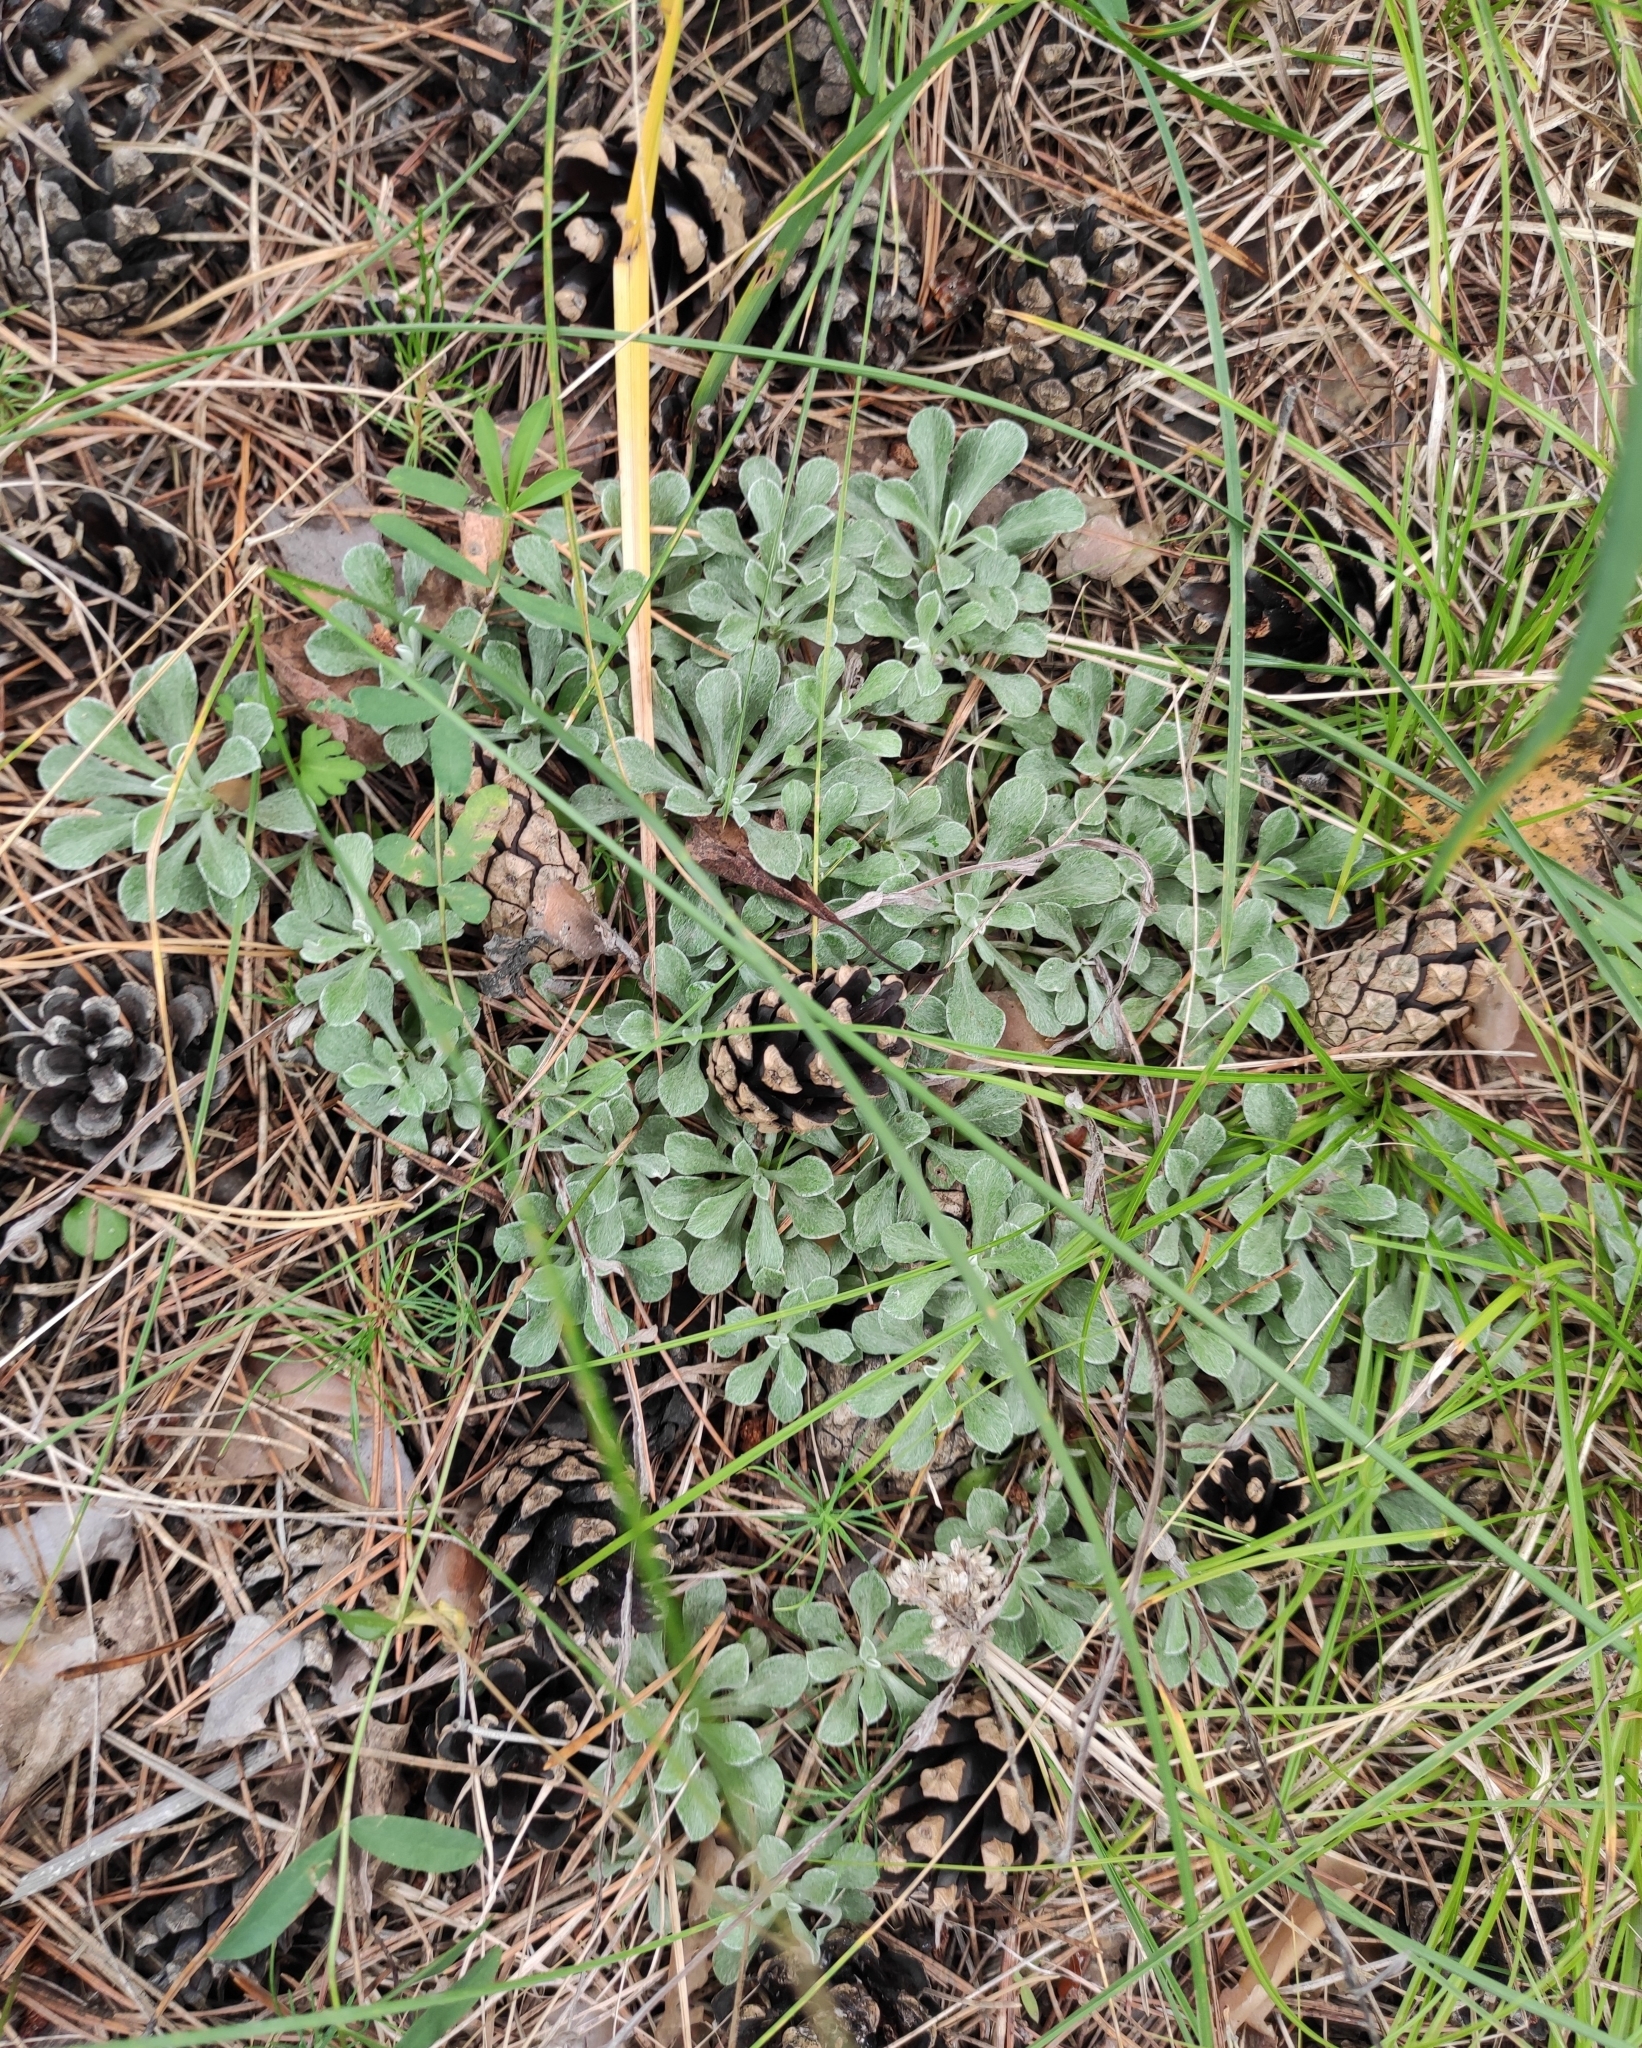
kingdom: Plantae
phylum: Tracheophyta
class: Magnoliopsida
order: Asterales
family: Asteraceae
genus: Antennaria
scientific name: Antennaria dioica
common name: Mountain everlasting
